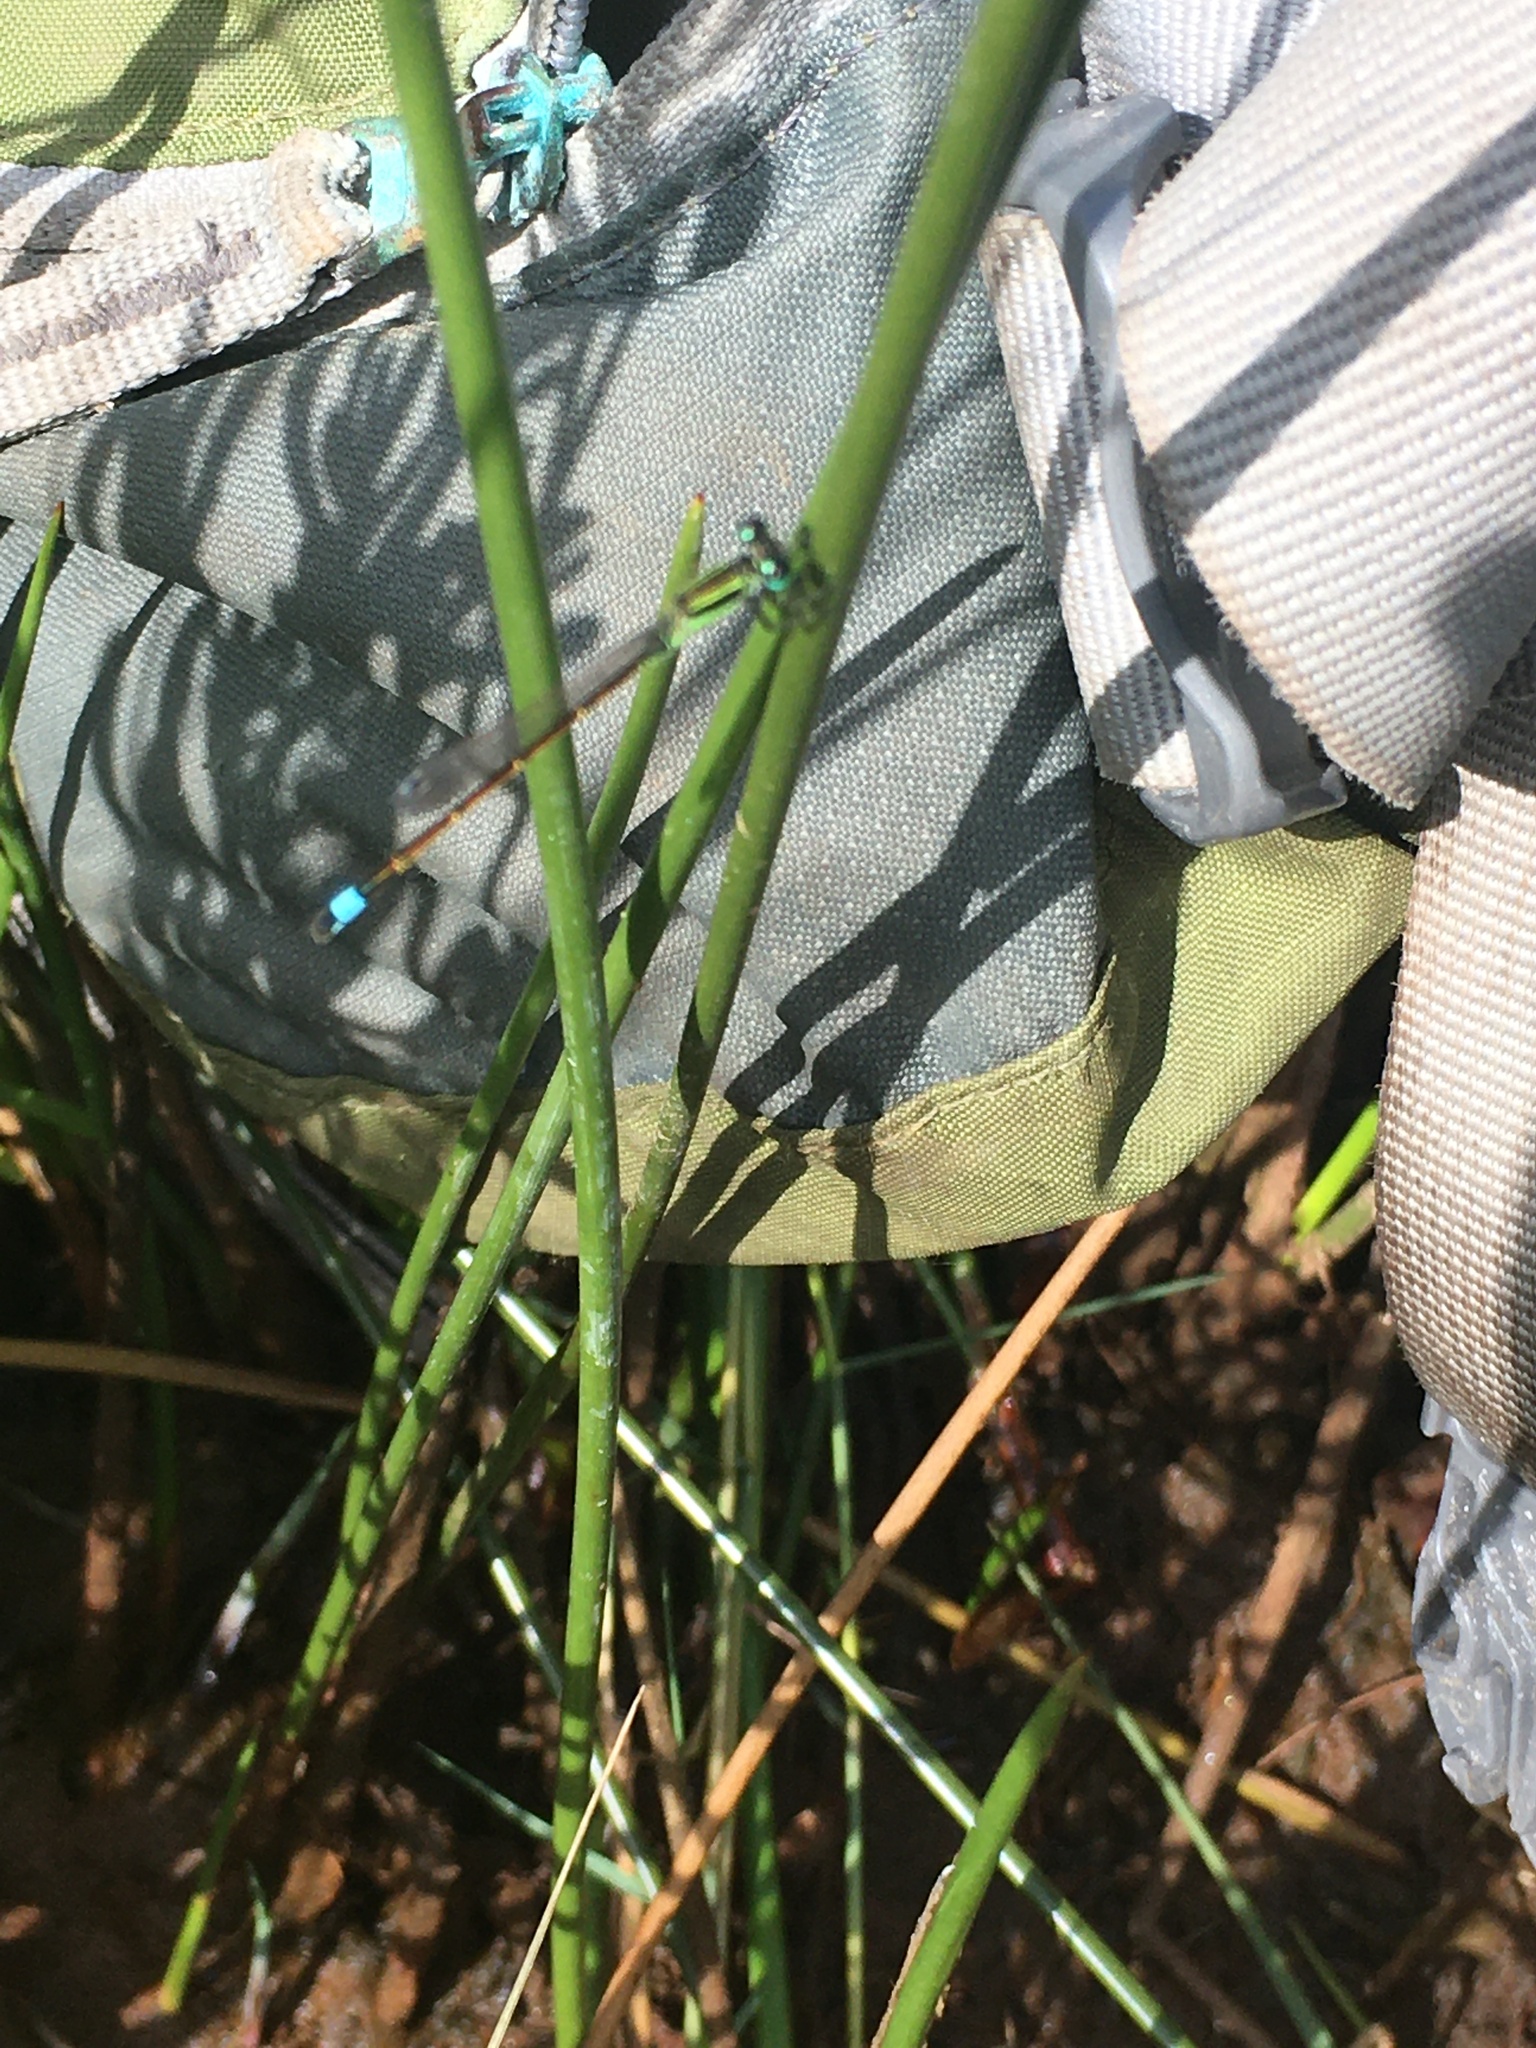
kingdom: Animalia
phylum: Arthropoda
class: Insecta
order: Odonata
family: Coenagrionidae
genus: Ischnura
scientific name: Ischnura ramburii
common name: Rambur's forktail
